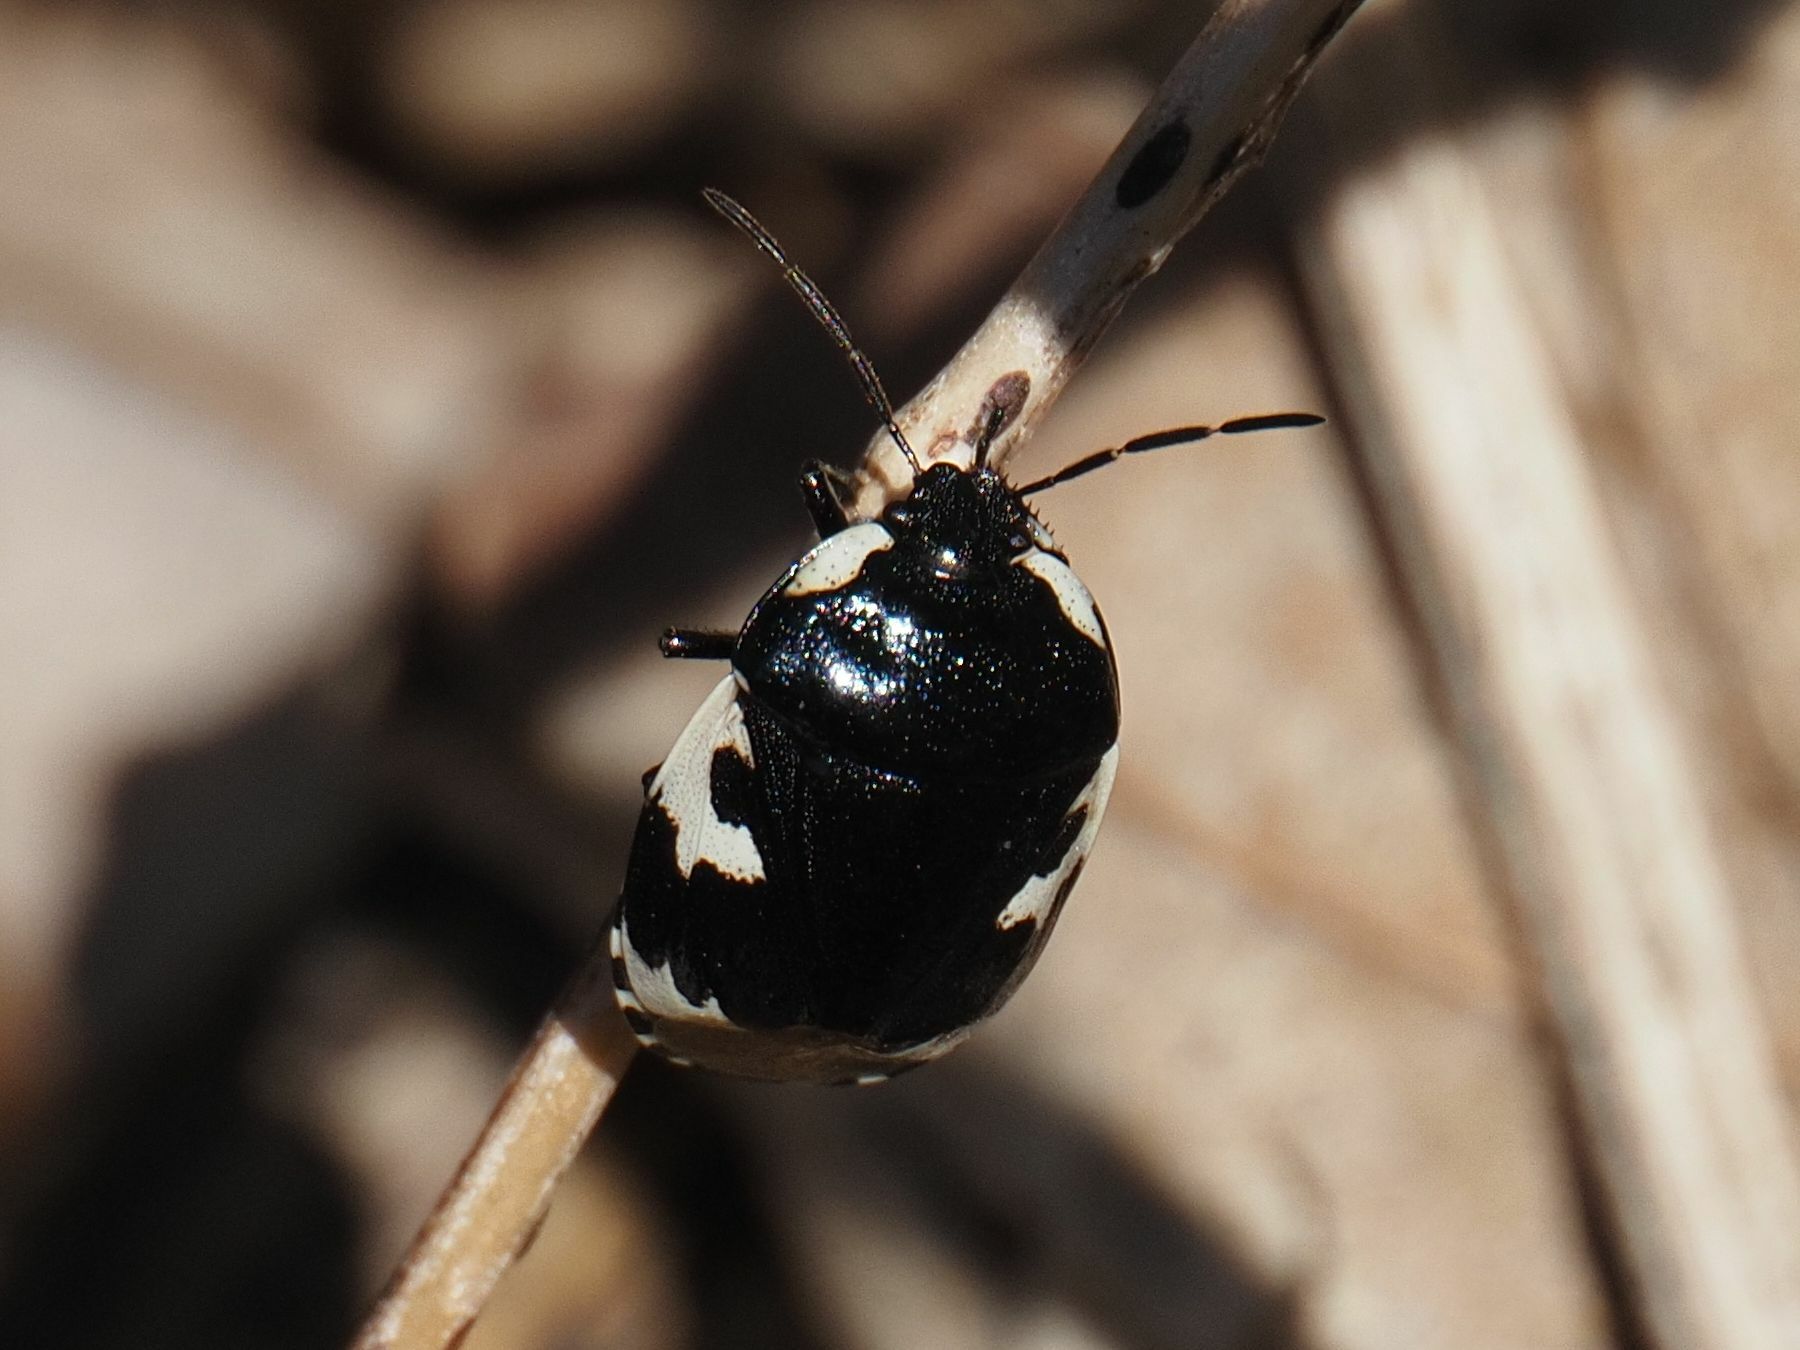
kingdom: Animalia
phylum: Arthropoda
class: Insecta
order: Hemiptera
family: Cydnidae
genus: Tritomegas
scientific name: Tritomegas bicolor
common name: Pied shieldbug
